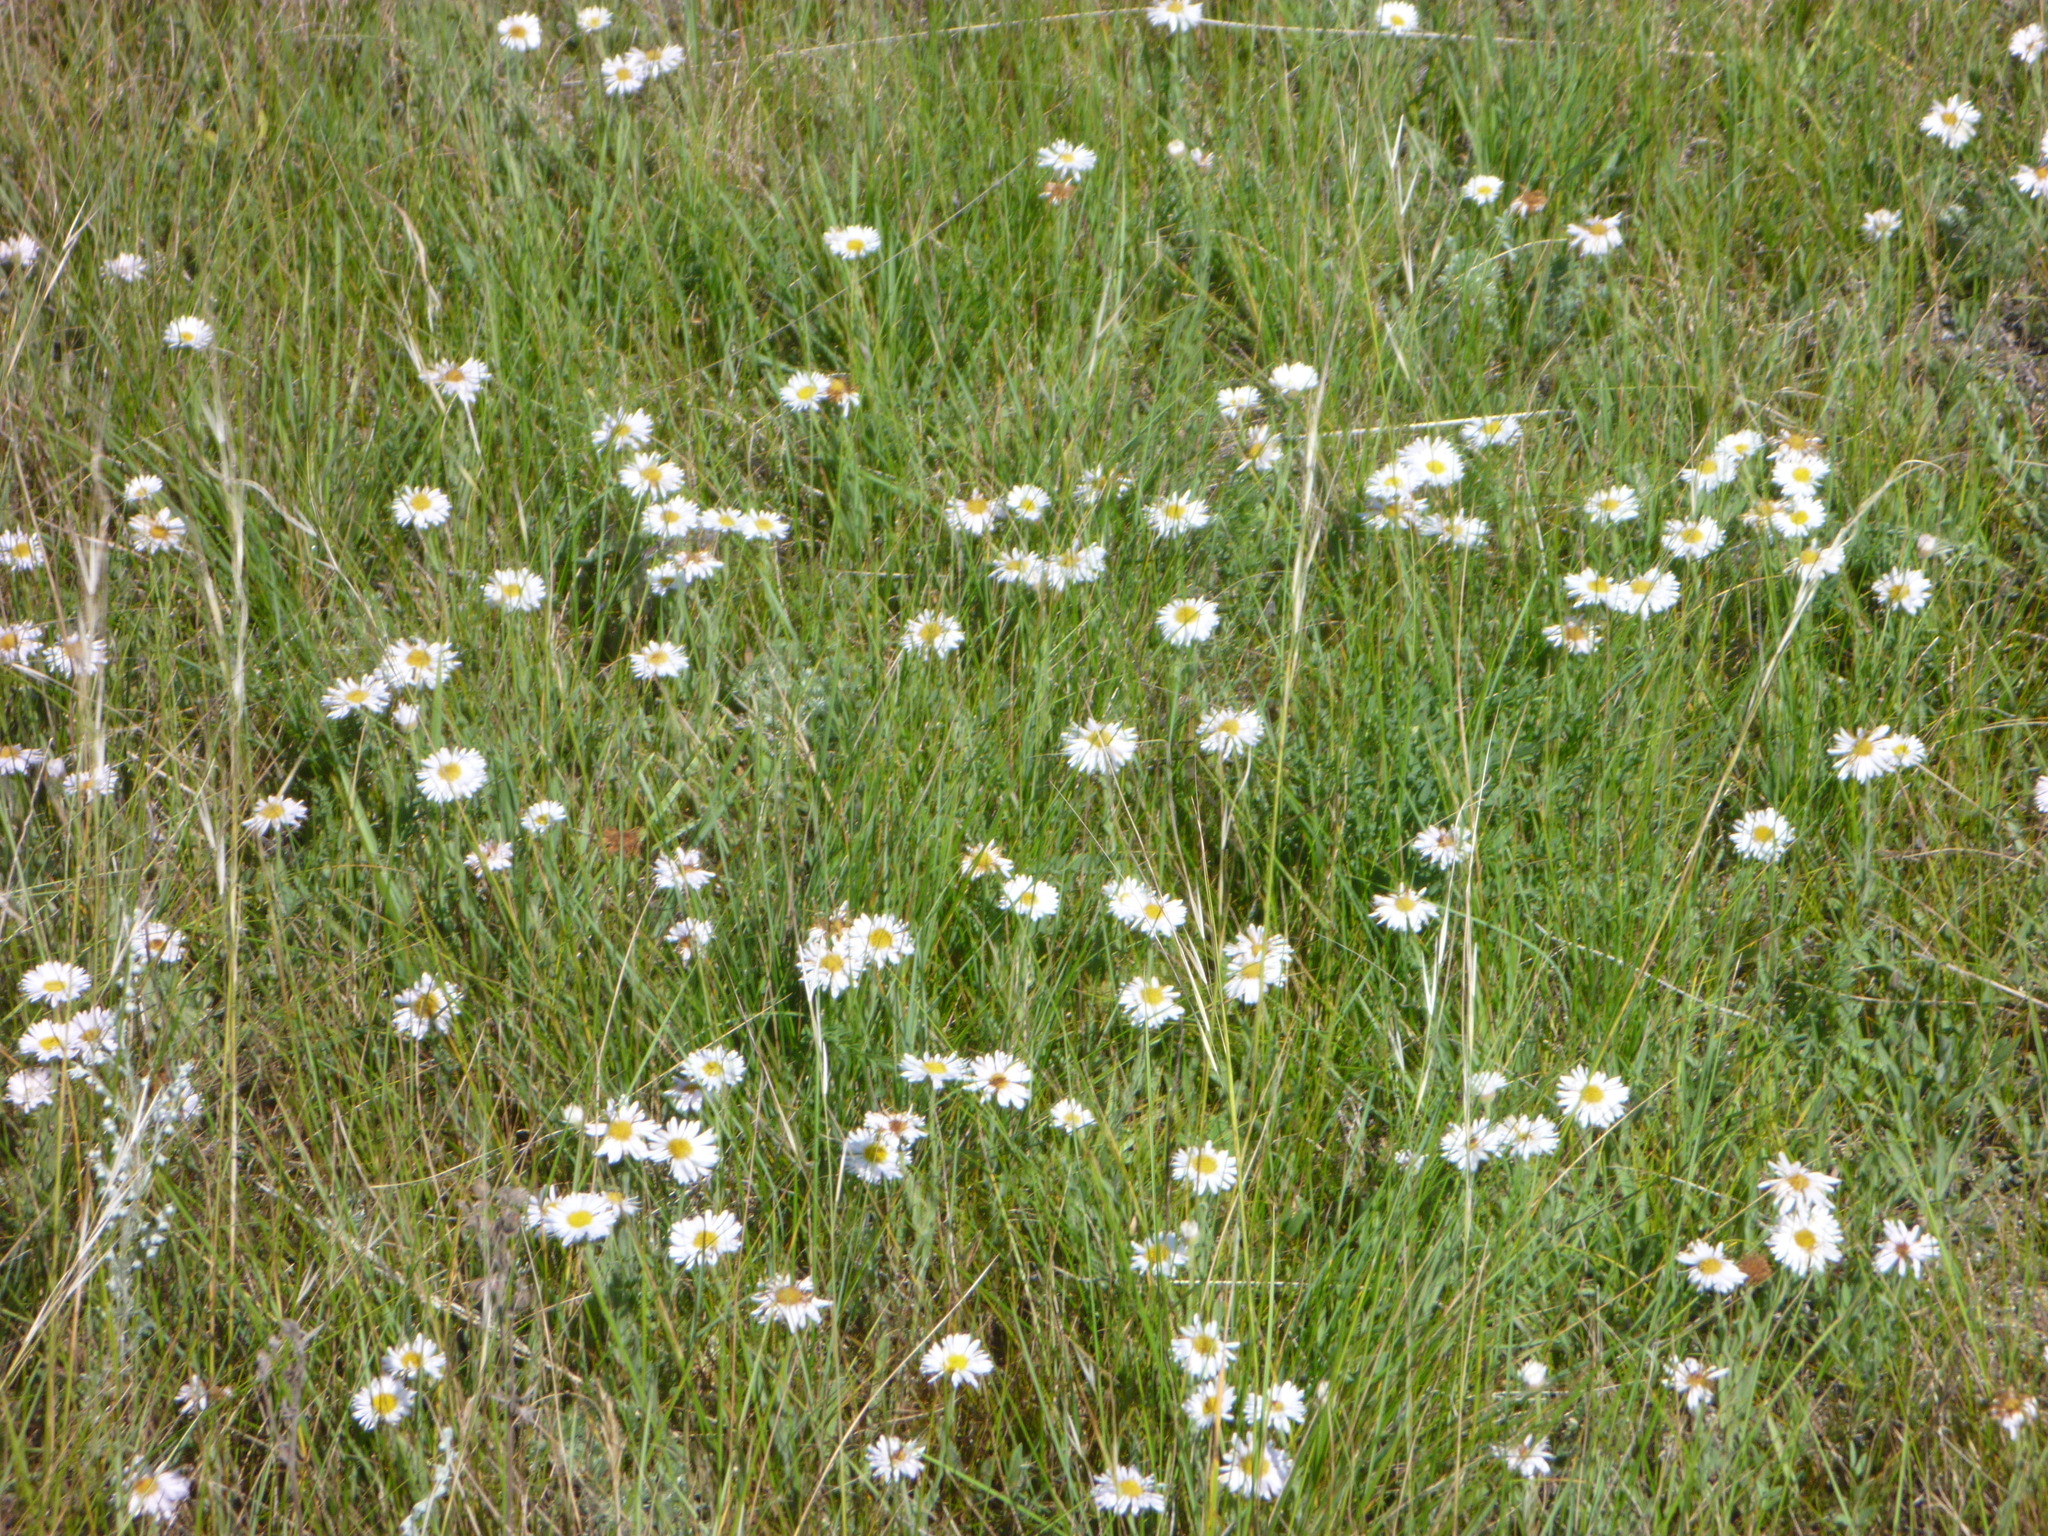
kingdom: Plantae
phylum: Tracheophyta
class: Magnoliopsida
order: Asterales
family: Asteraceae
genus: Symphyotrichum
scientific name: Symphyotrichum falcatum
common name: Creeping white prairie aster
